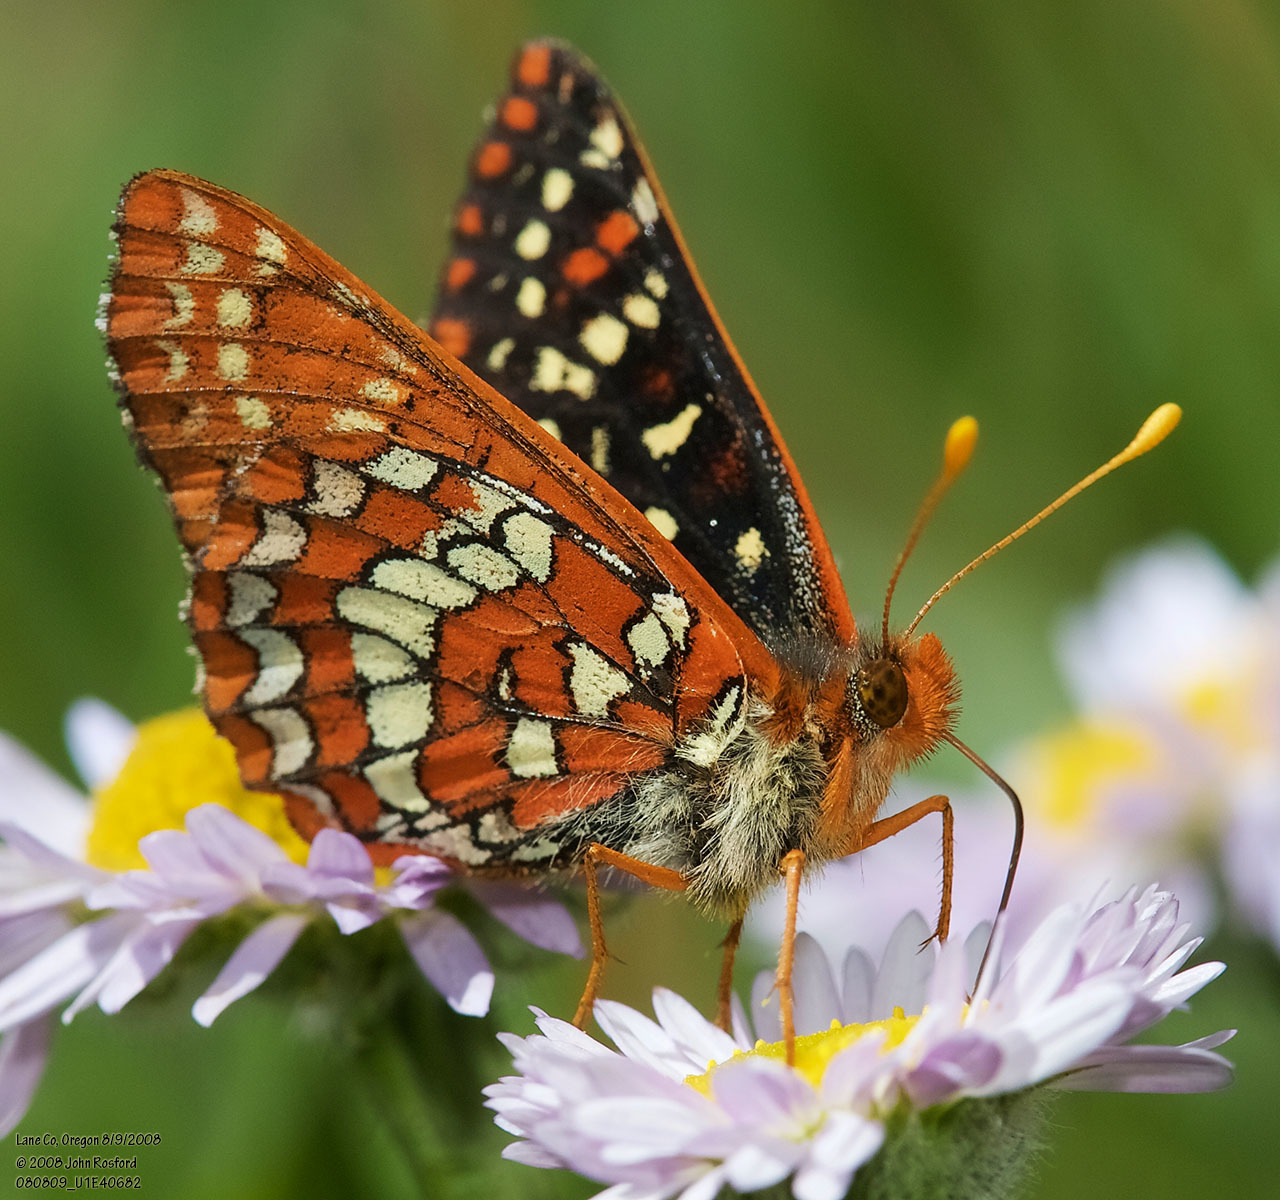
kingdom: Animalia
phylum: Arthropoda
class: Insecta
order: Lepidoptera
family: Nymphalidae
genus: Occidryas
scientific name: Occidryas colon
